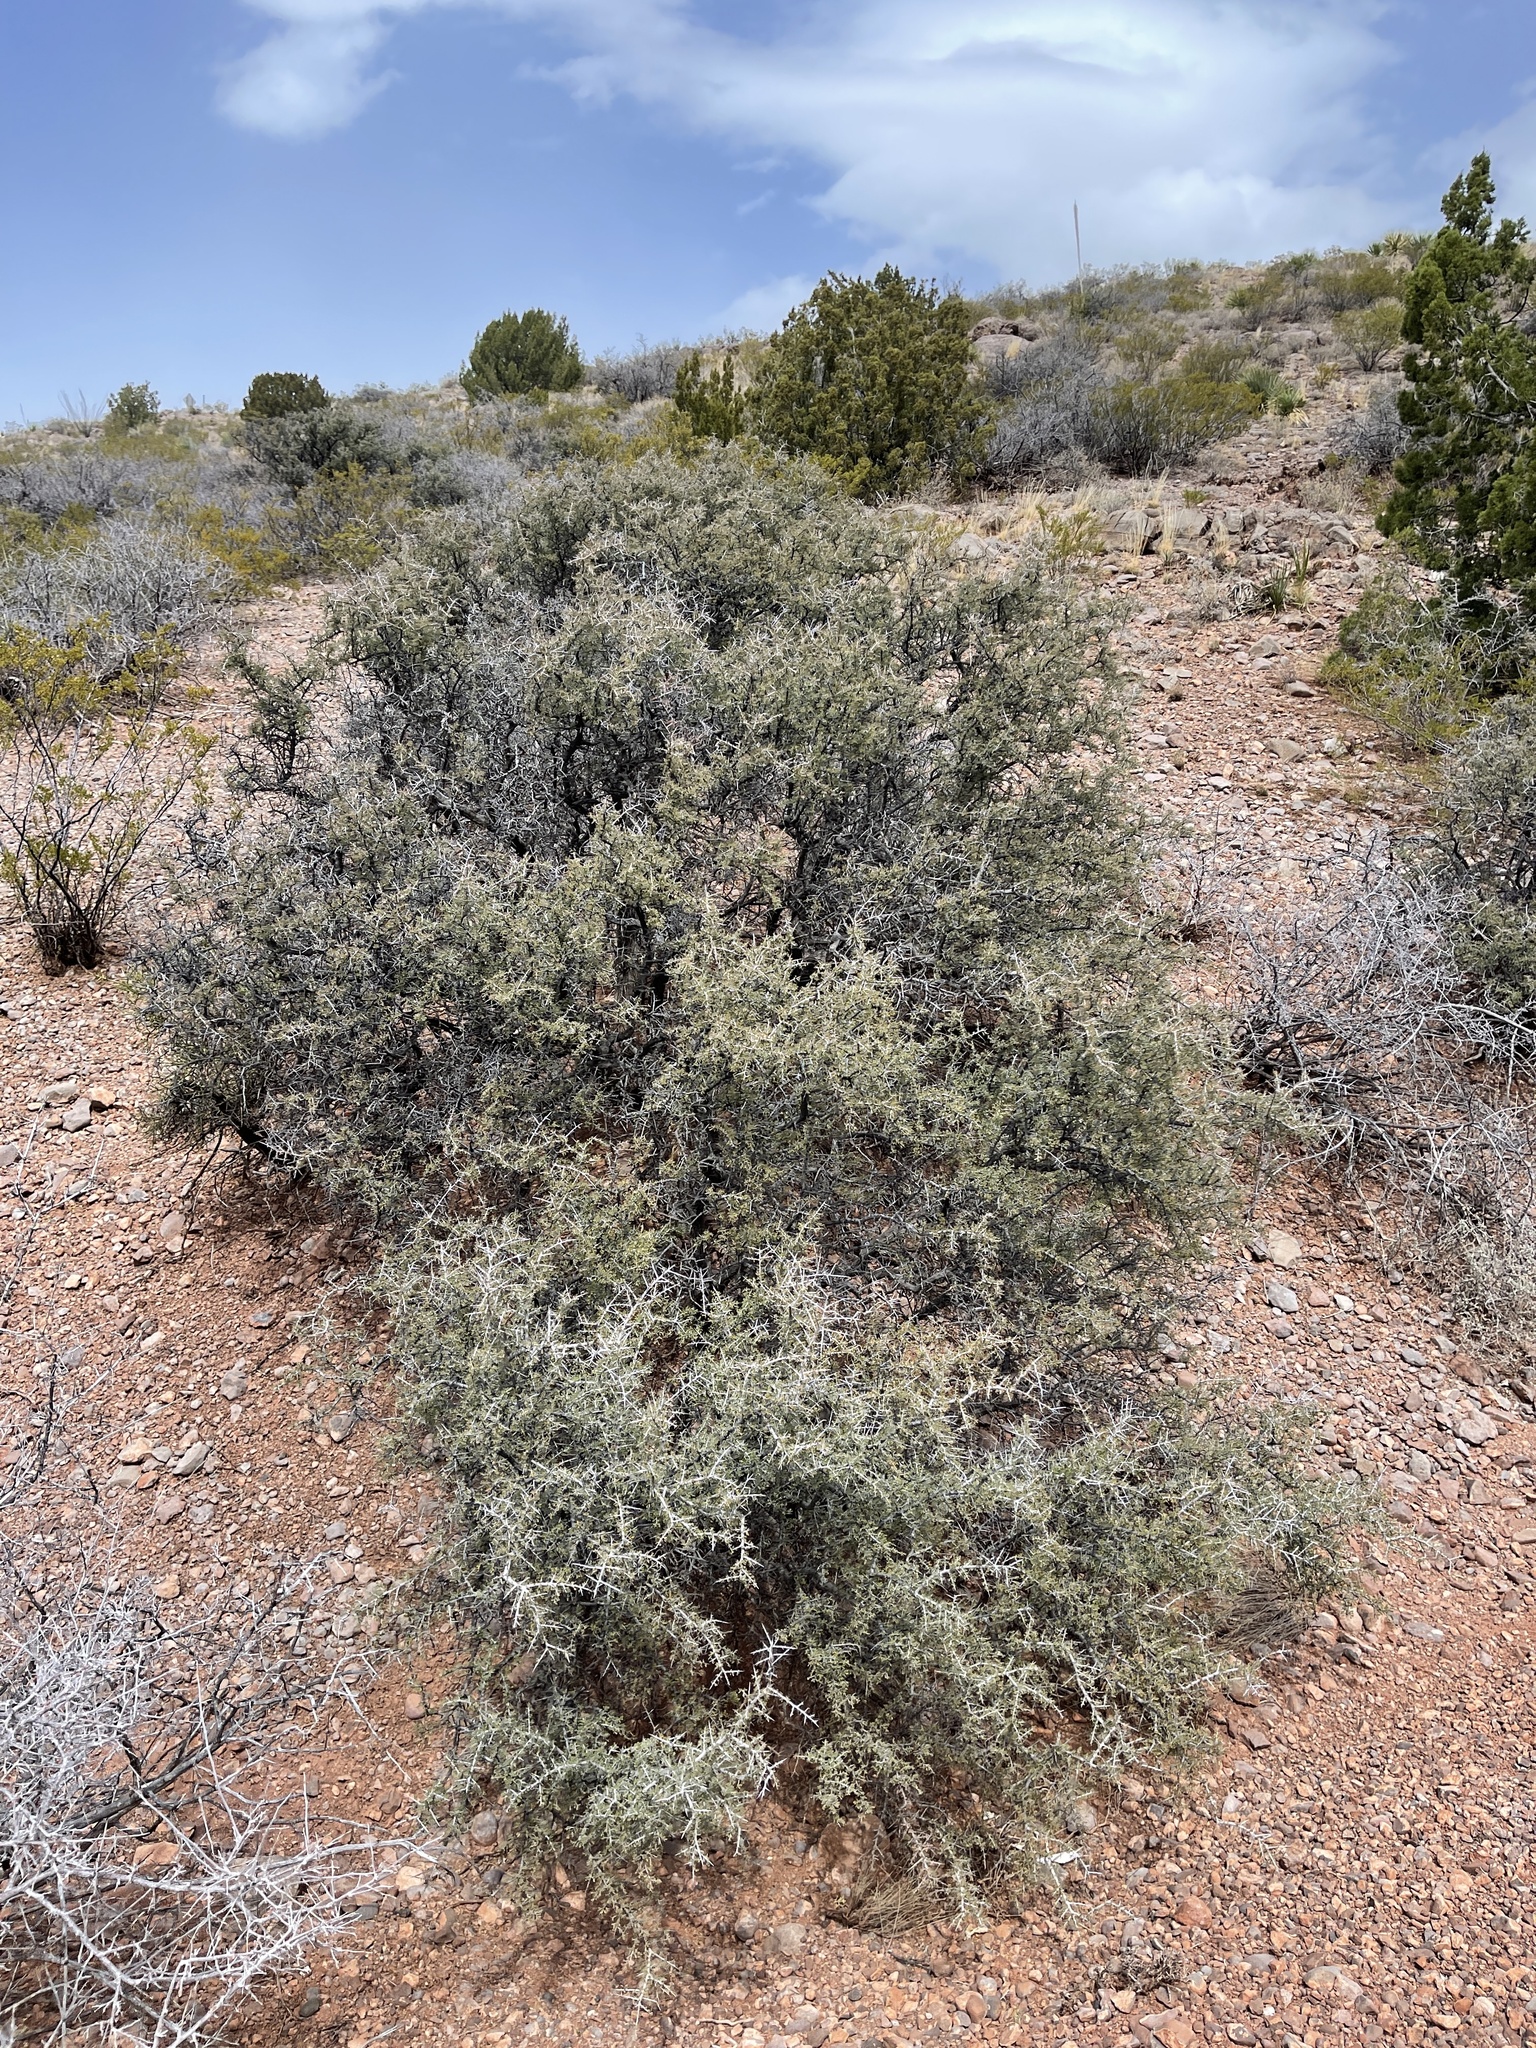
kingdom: Plantae
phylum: Tracheophyta
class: Magnoliopsida
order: Rosales
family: Rhamnaceae
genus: Condalia
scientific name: Condalia warnockii
